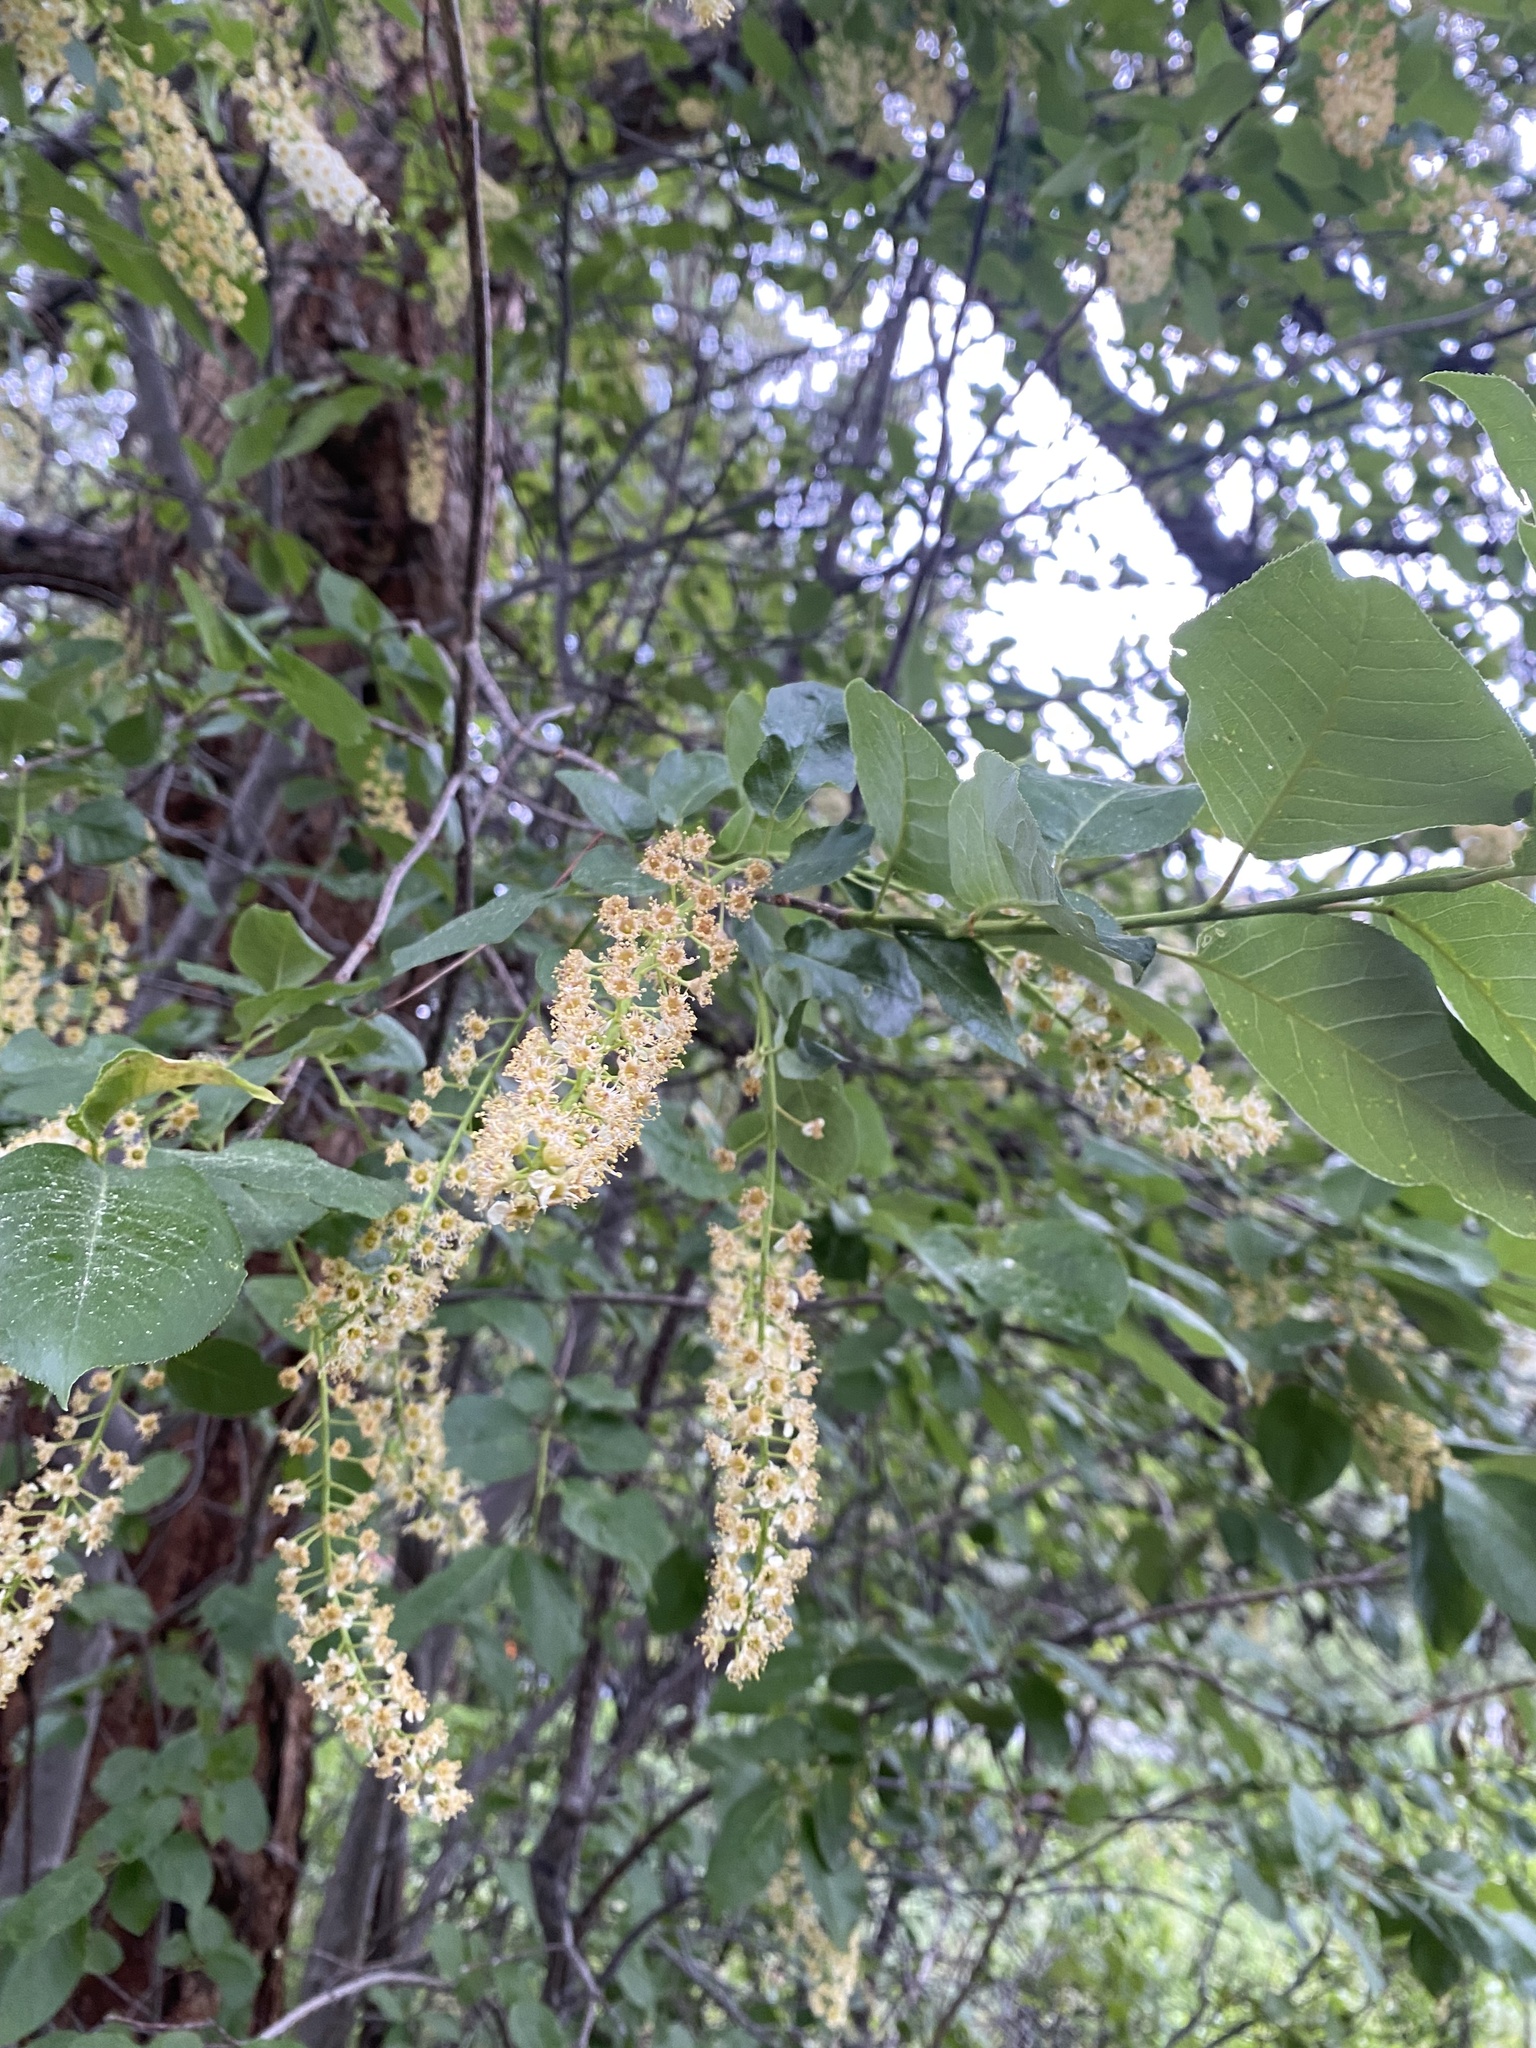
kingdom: Plantae
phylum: Tracheophyta
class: Magnoliopsida
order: Rosales
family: Rosaceae
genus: Prunus
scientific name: Prunus virginiana
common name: Chokecherry
